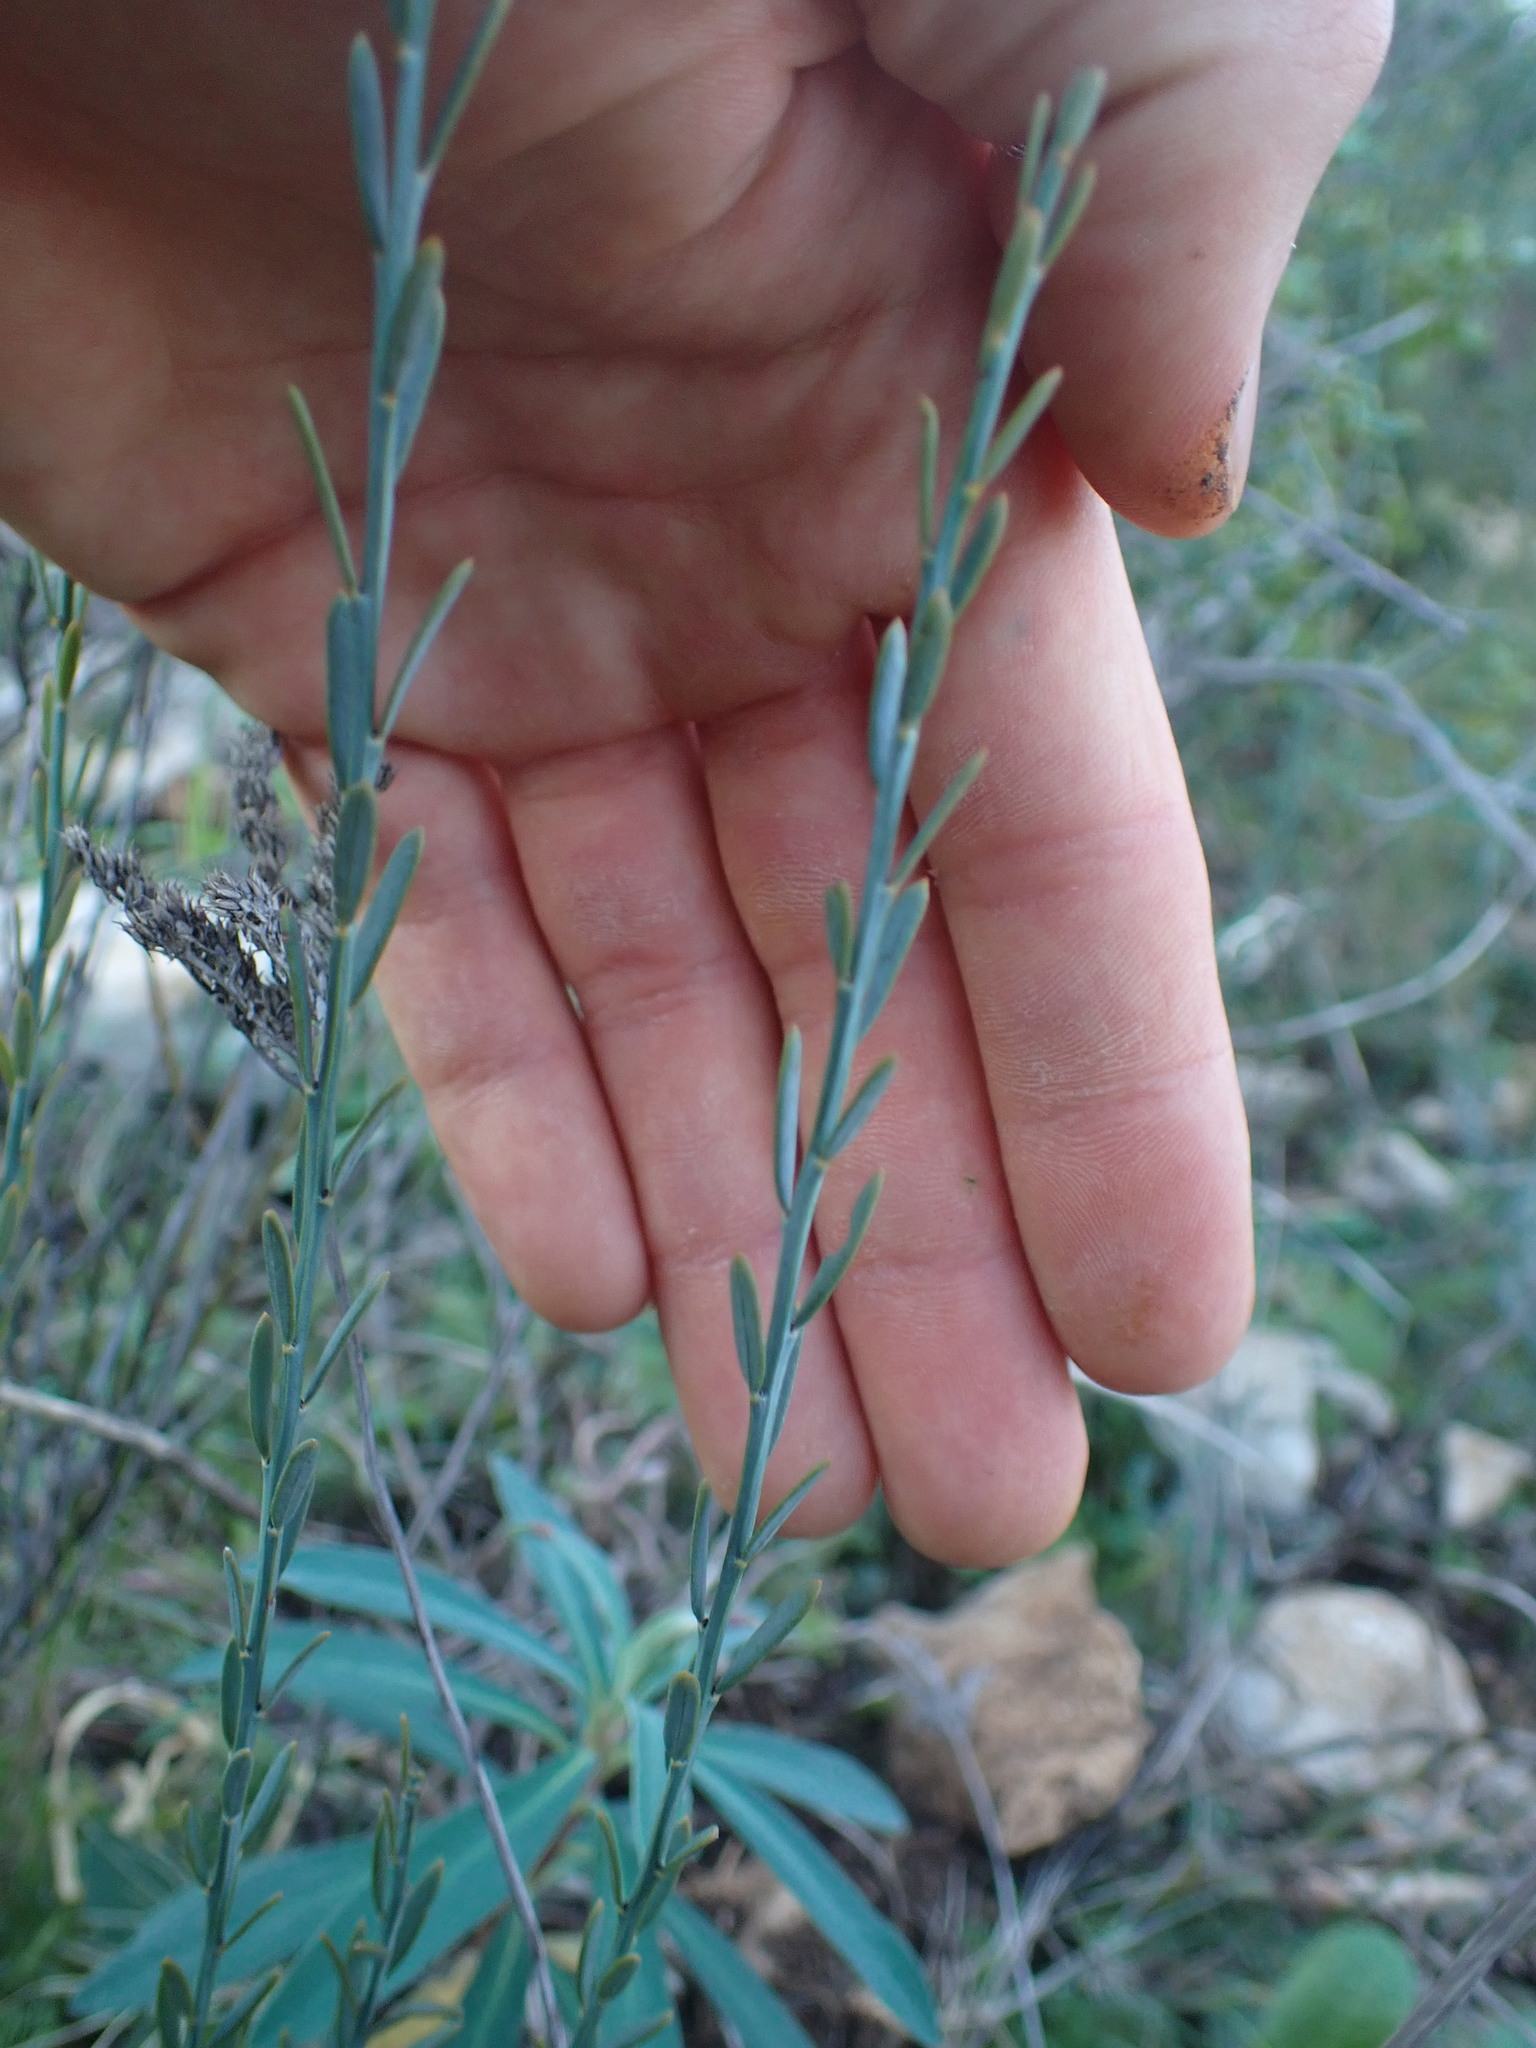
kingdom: Plantae
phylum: Tracheophyta
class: Magnoliopsida
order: Santalales
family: Santalaceae
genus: Osyris
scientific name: Osyris alba
